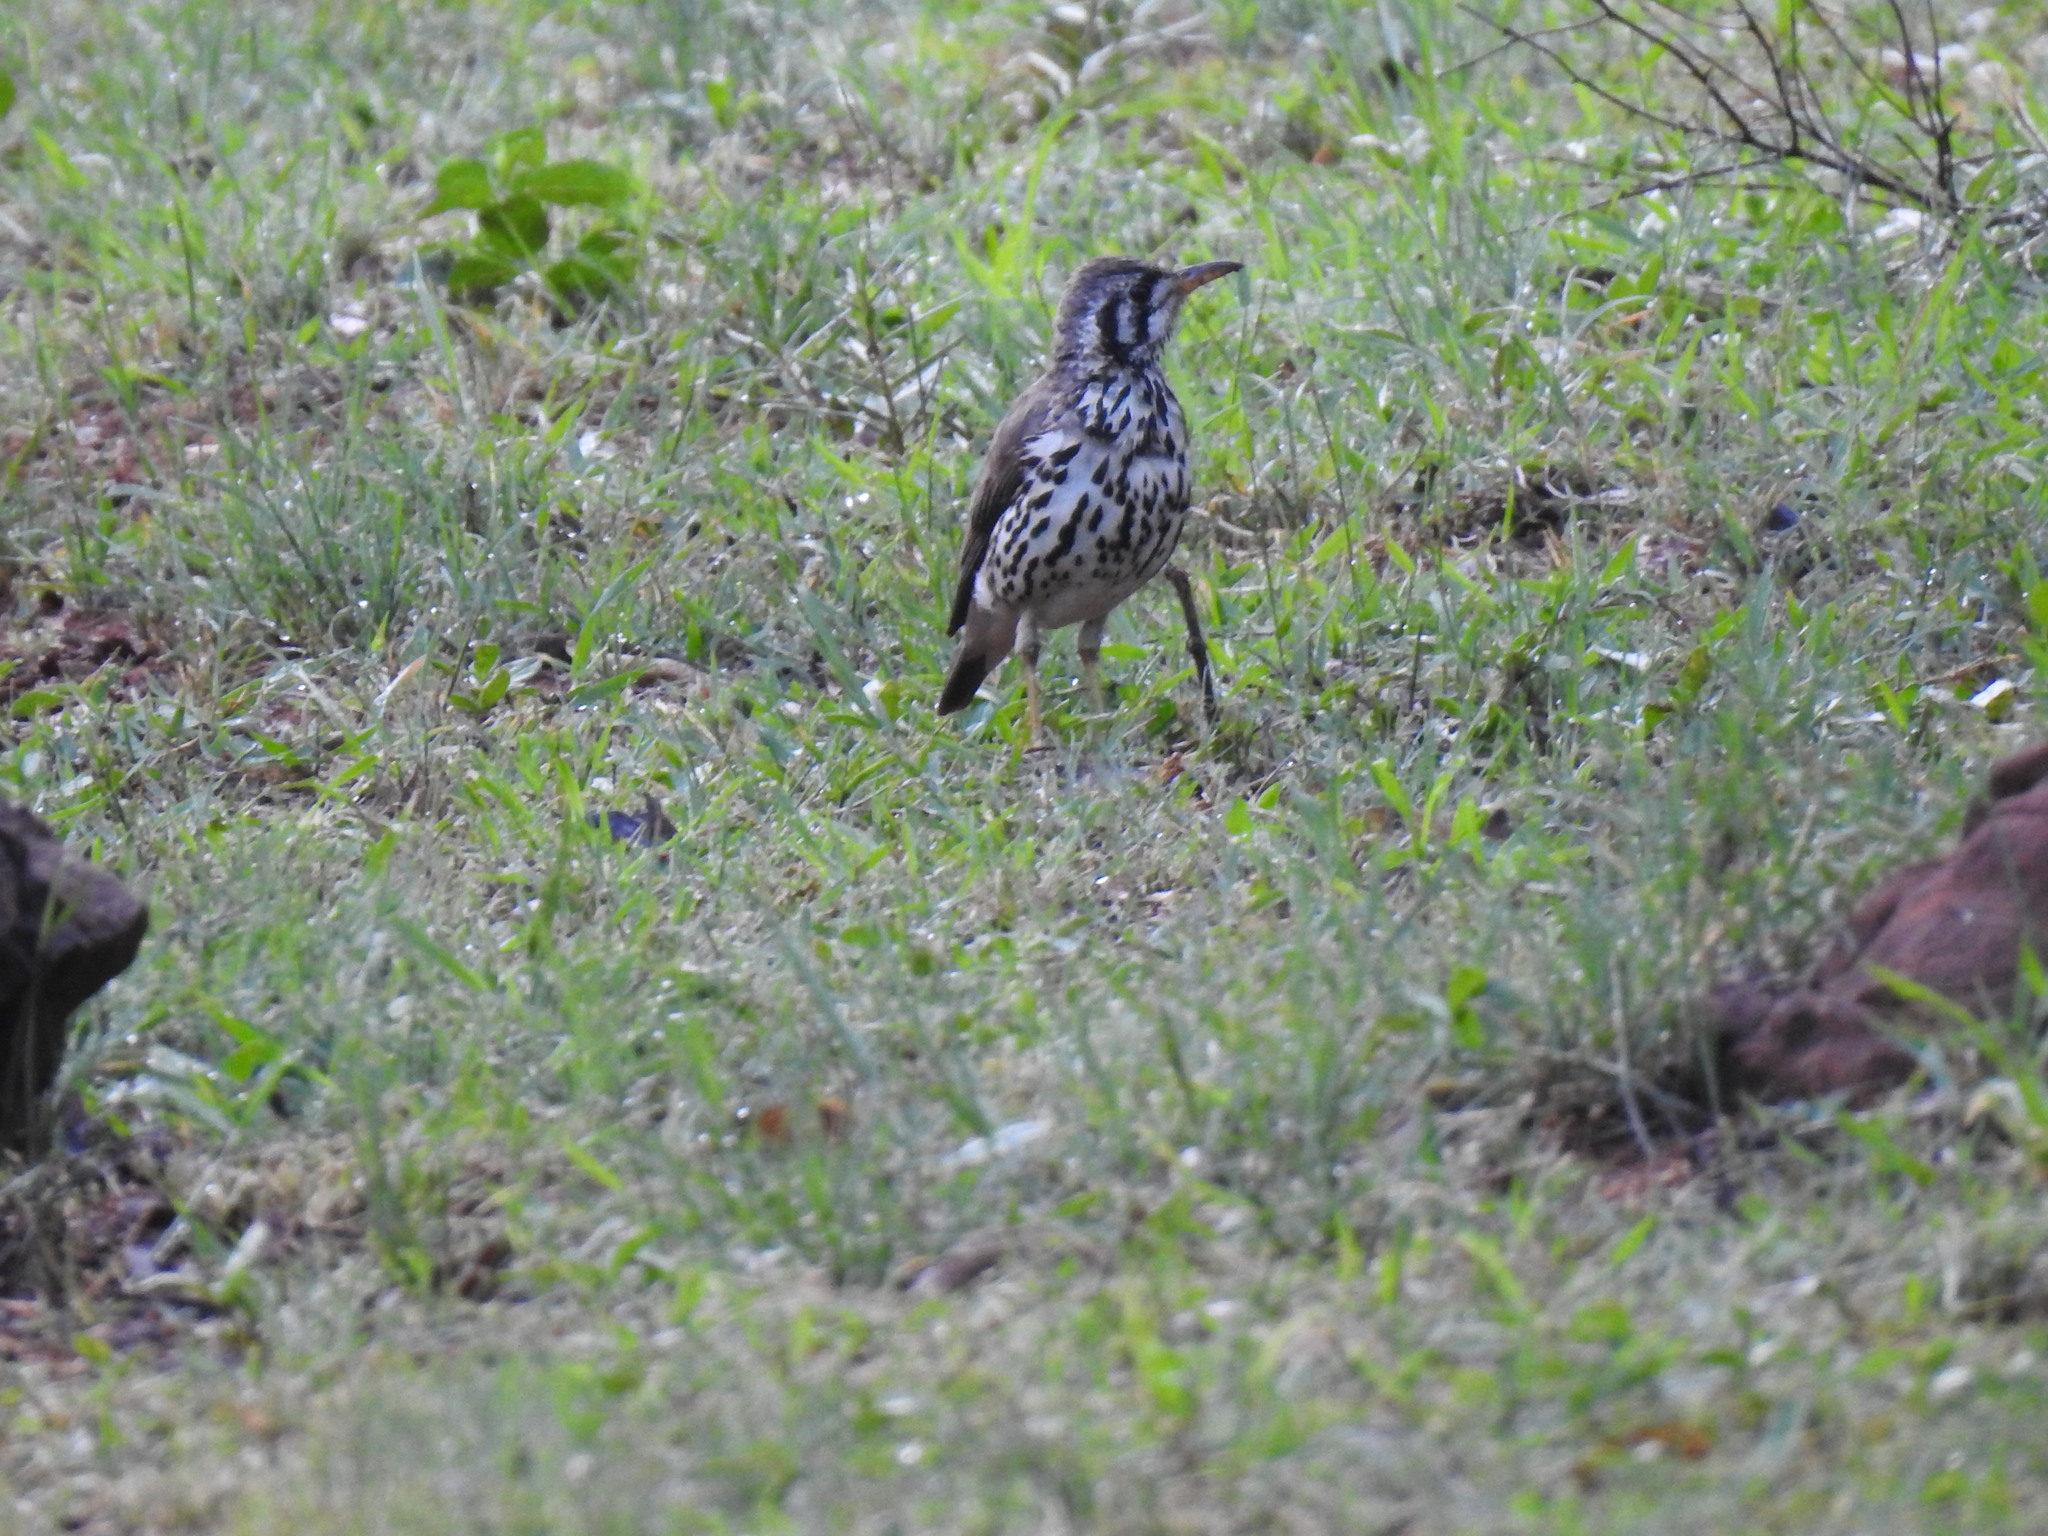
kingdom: Animalia
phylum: Chordata
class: Aves
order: Passeriformes
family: Turdidae
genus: Psophocichla
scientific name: Psophocichla litsitsirupa
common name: Groundscraper thrush
